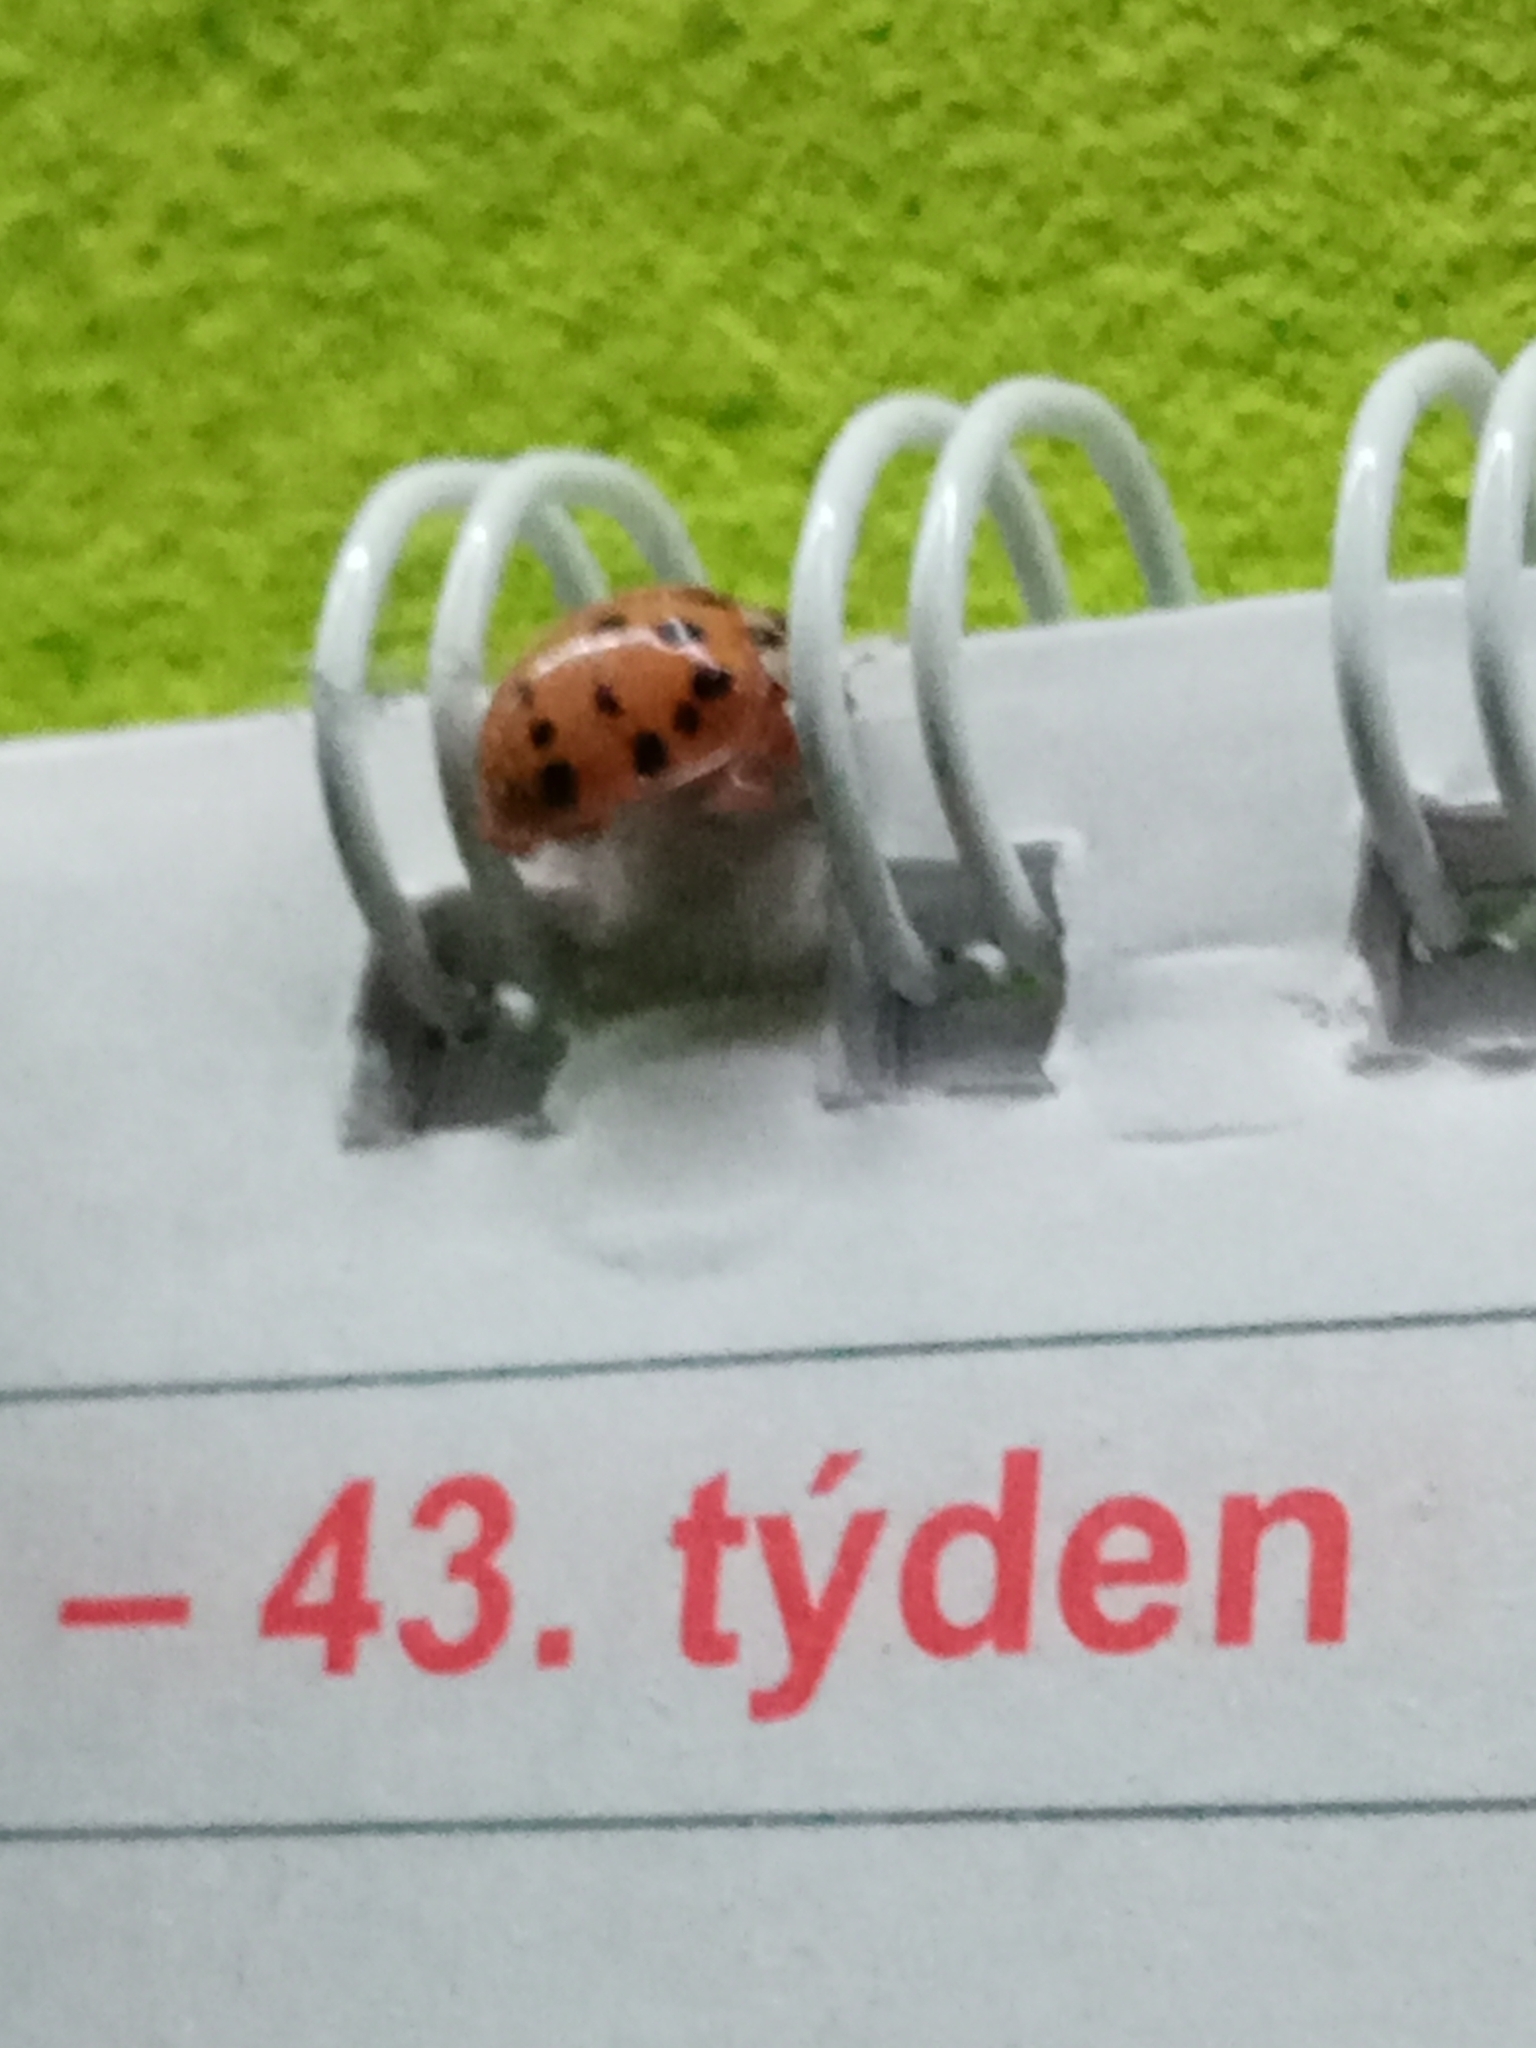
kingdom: Animalia
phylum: Arthropoda
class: Insecta
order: Coleoptera
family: Coccinellidae
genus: Harmonia
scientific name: Harmonia axyridis
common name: Harlequin ladybird
